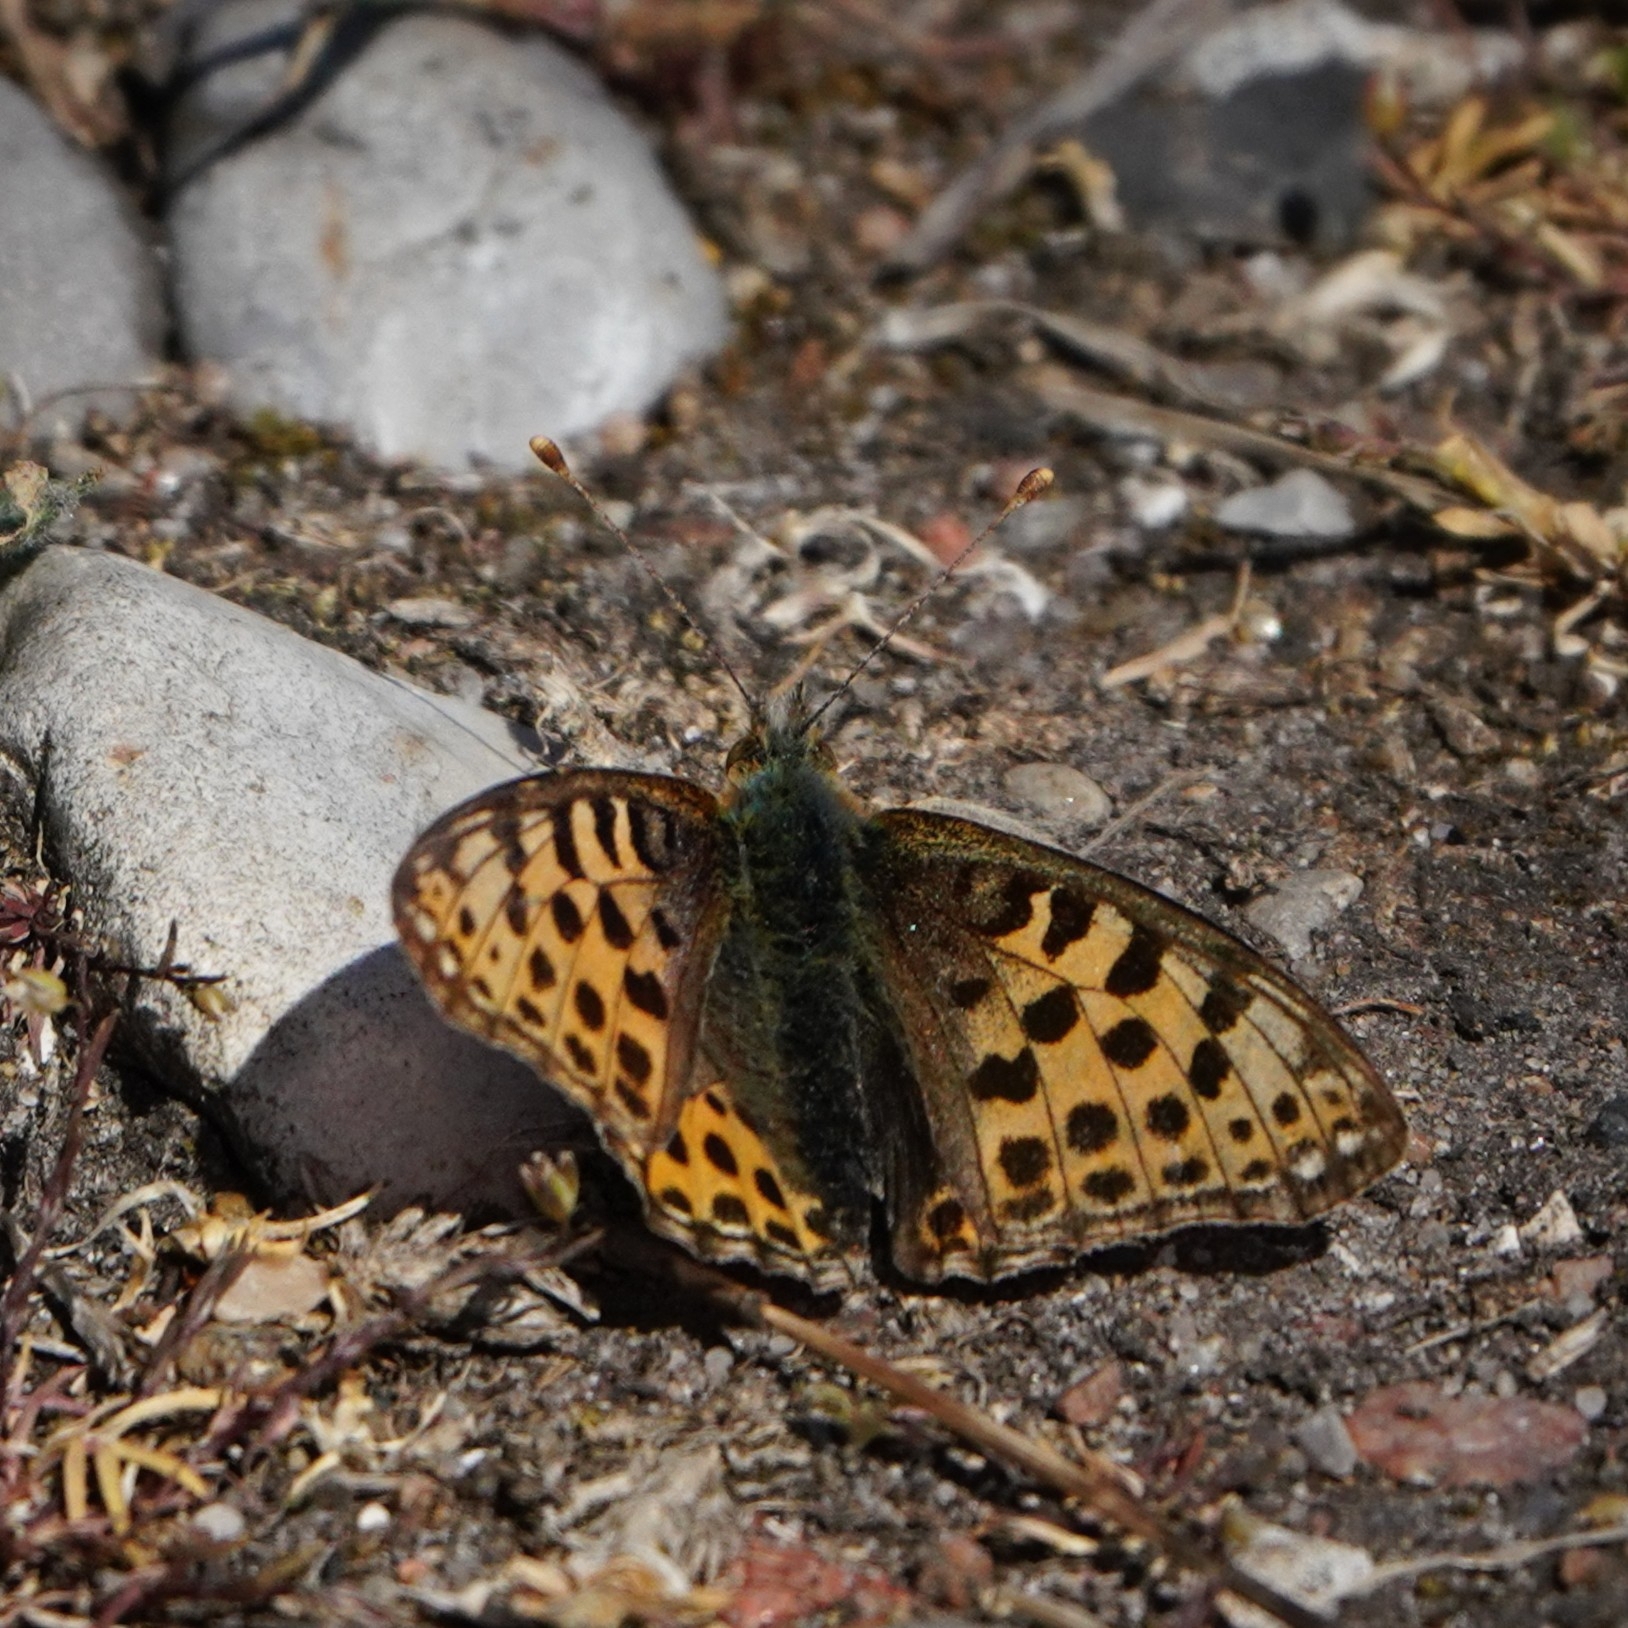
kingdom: Animalia
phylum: Arthropoda
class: Insecta
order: Lepidoptera
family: Nymphalidae
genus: Issoria
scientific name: Issoria lathonia
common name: Queen of spain fritillary
